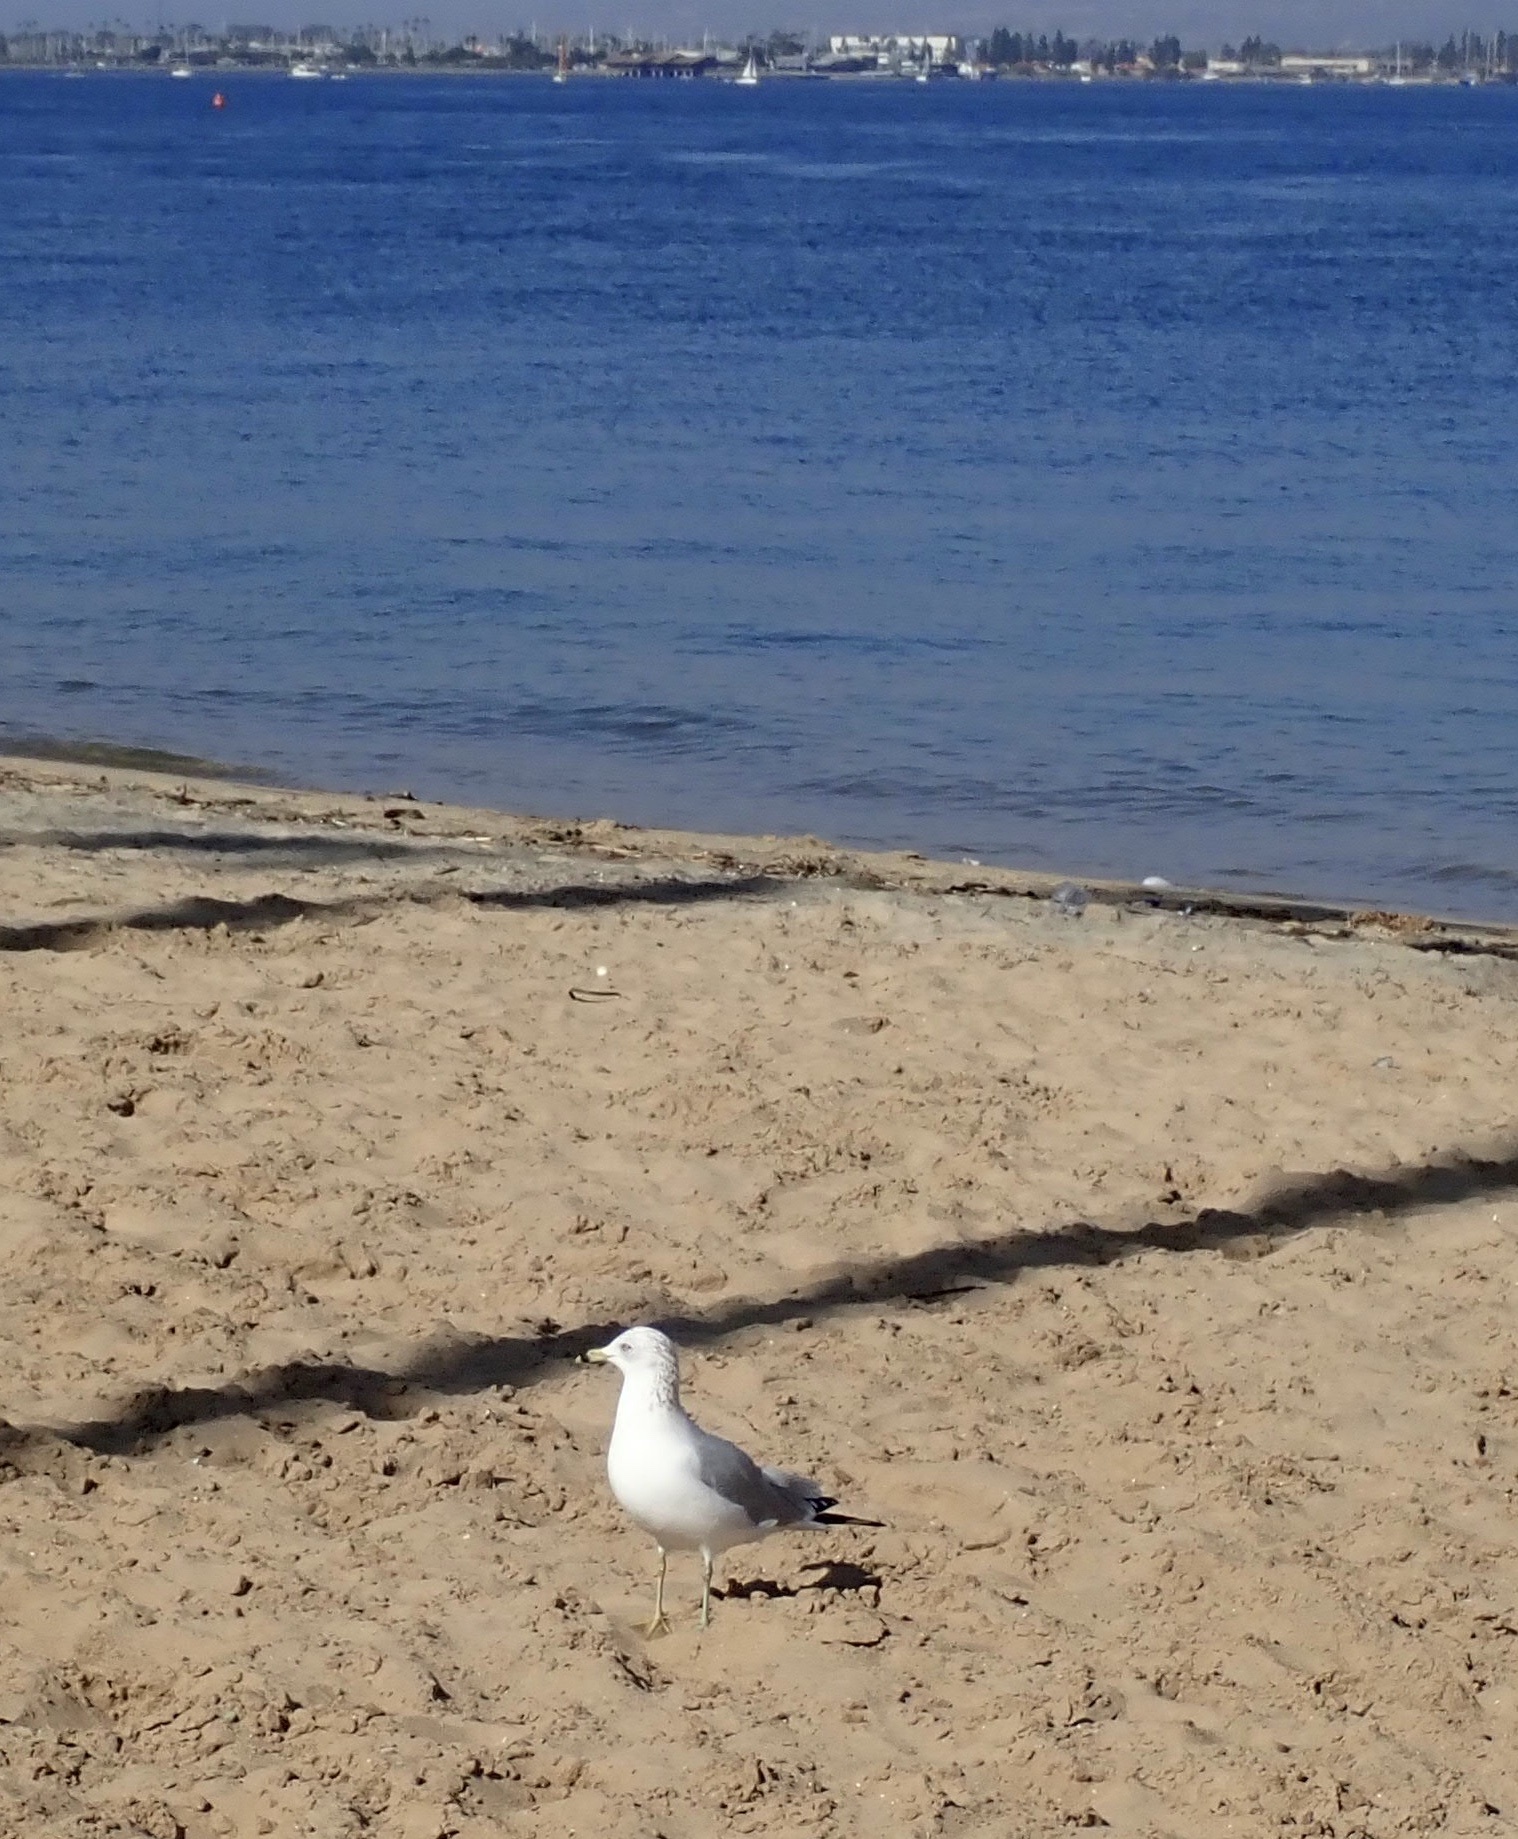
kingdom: Animalia
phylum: Chordata
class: Aves
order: Charadriiformes
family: Laridae
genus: Larus
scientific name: Larus delawarensis
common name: Ring-billed gull
